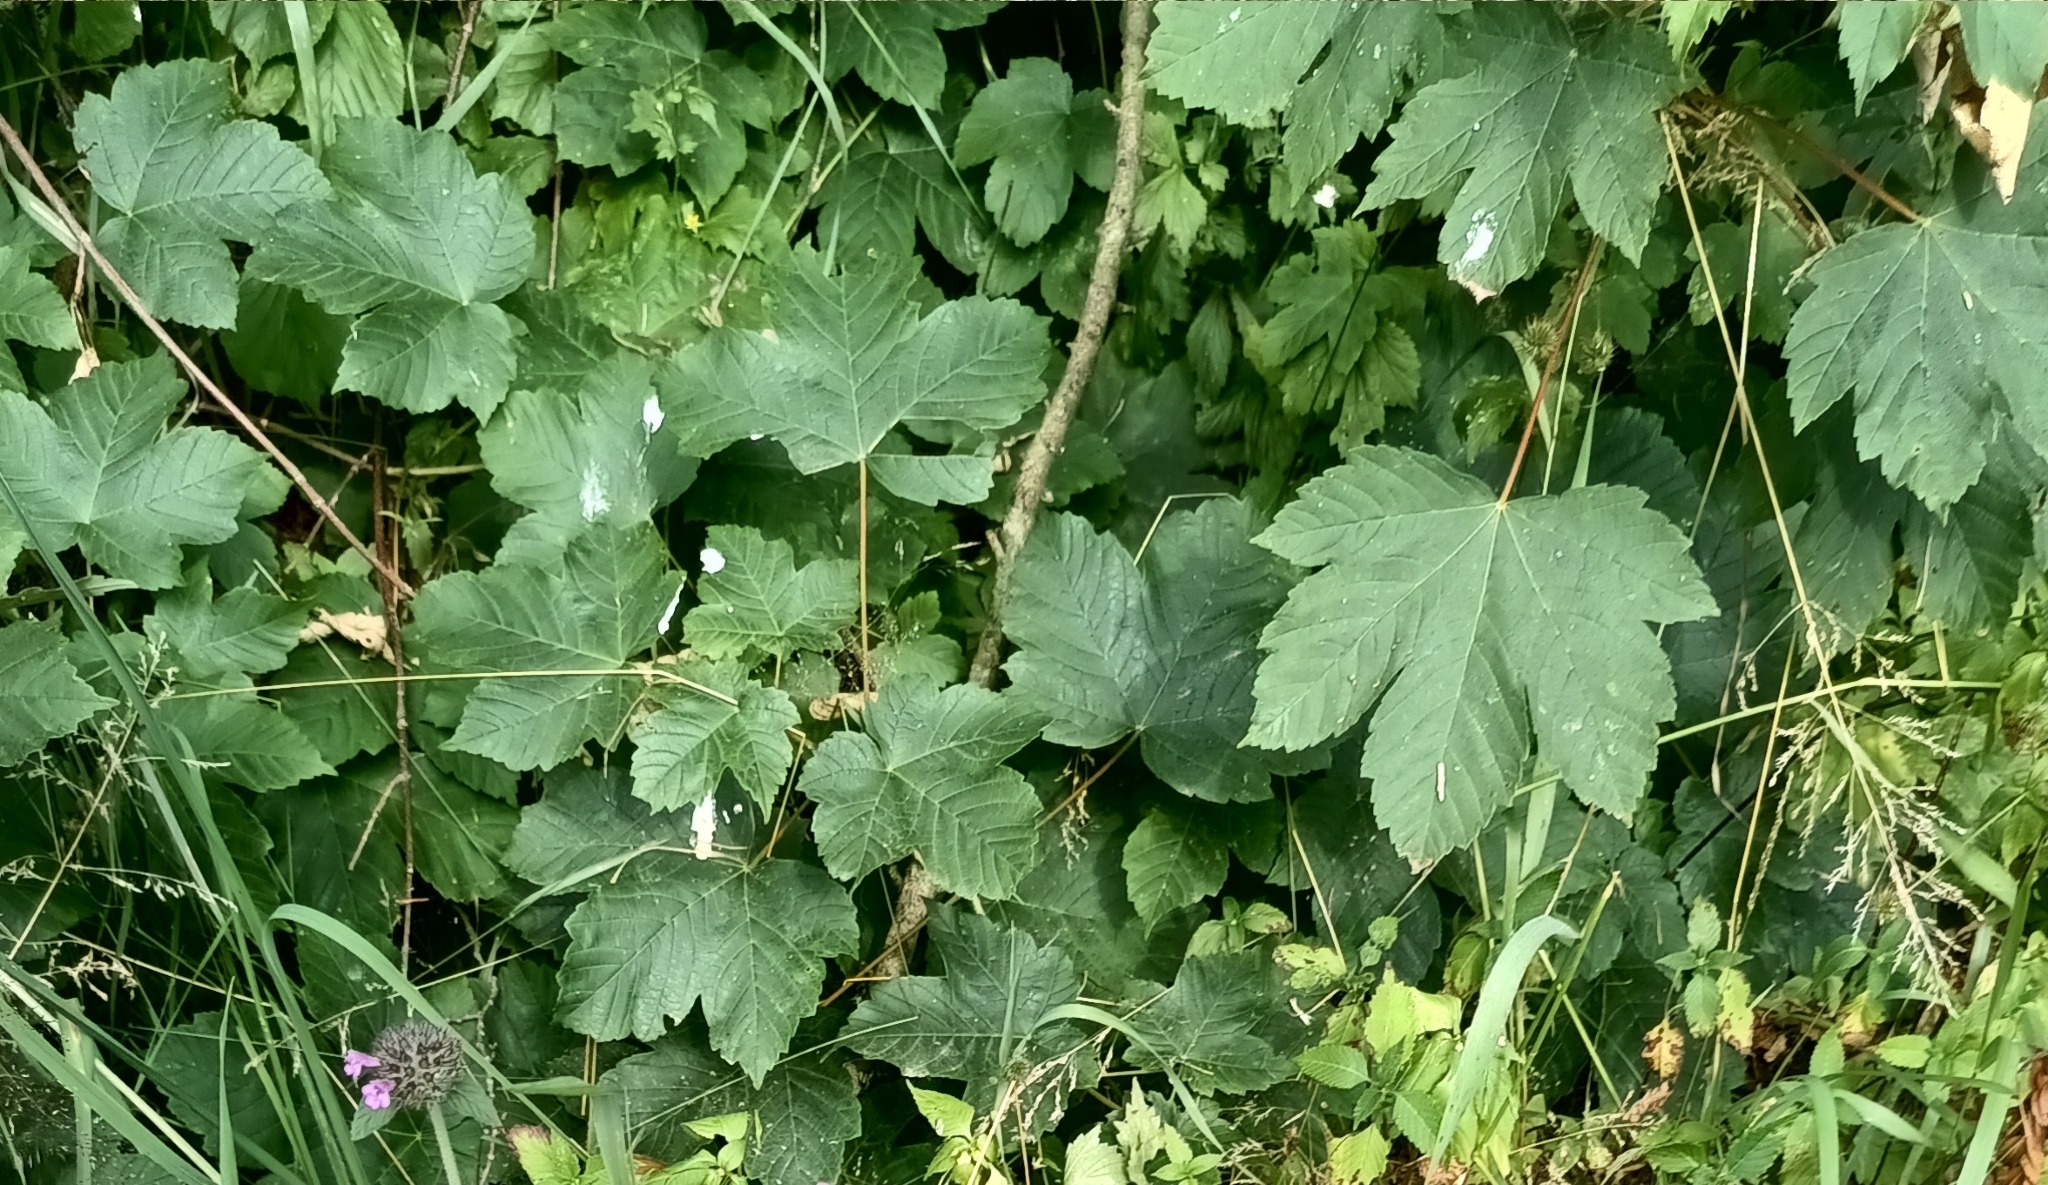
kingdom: Plantae
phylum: Tracheophyta
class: Magnoliopsida
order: Sapindales
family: Sapindaceae
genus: Acer
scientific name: Acer pseudoplatanus
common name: Sycamore
